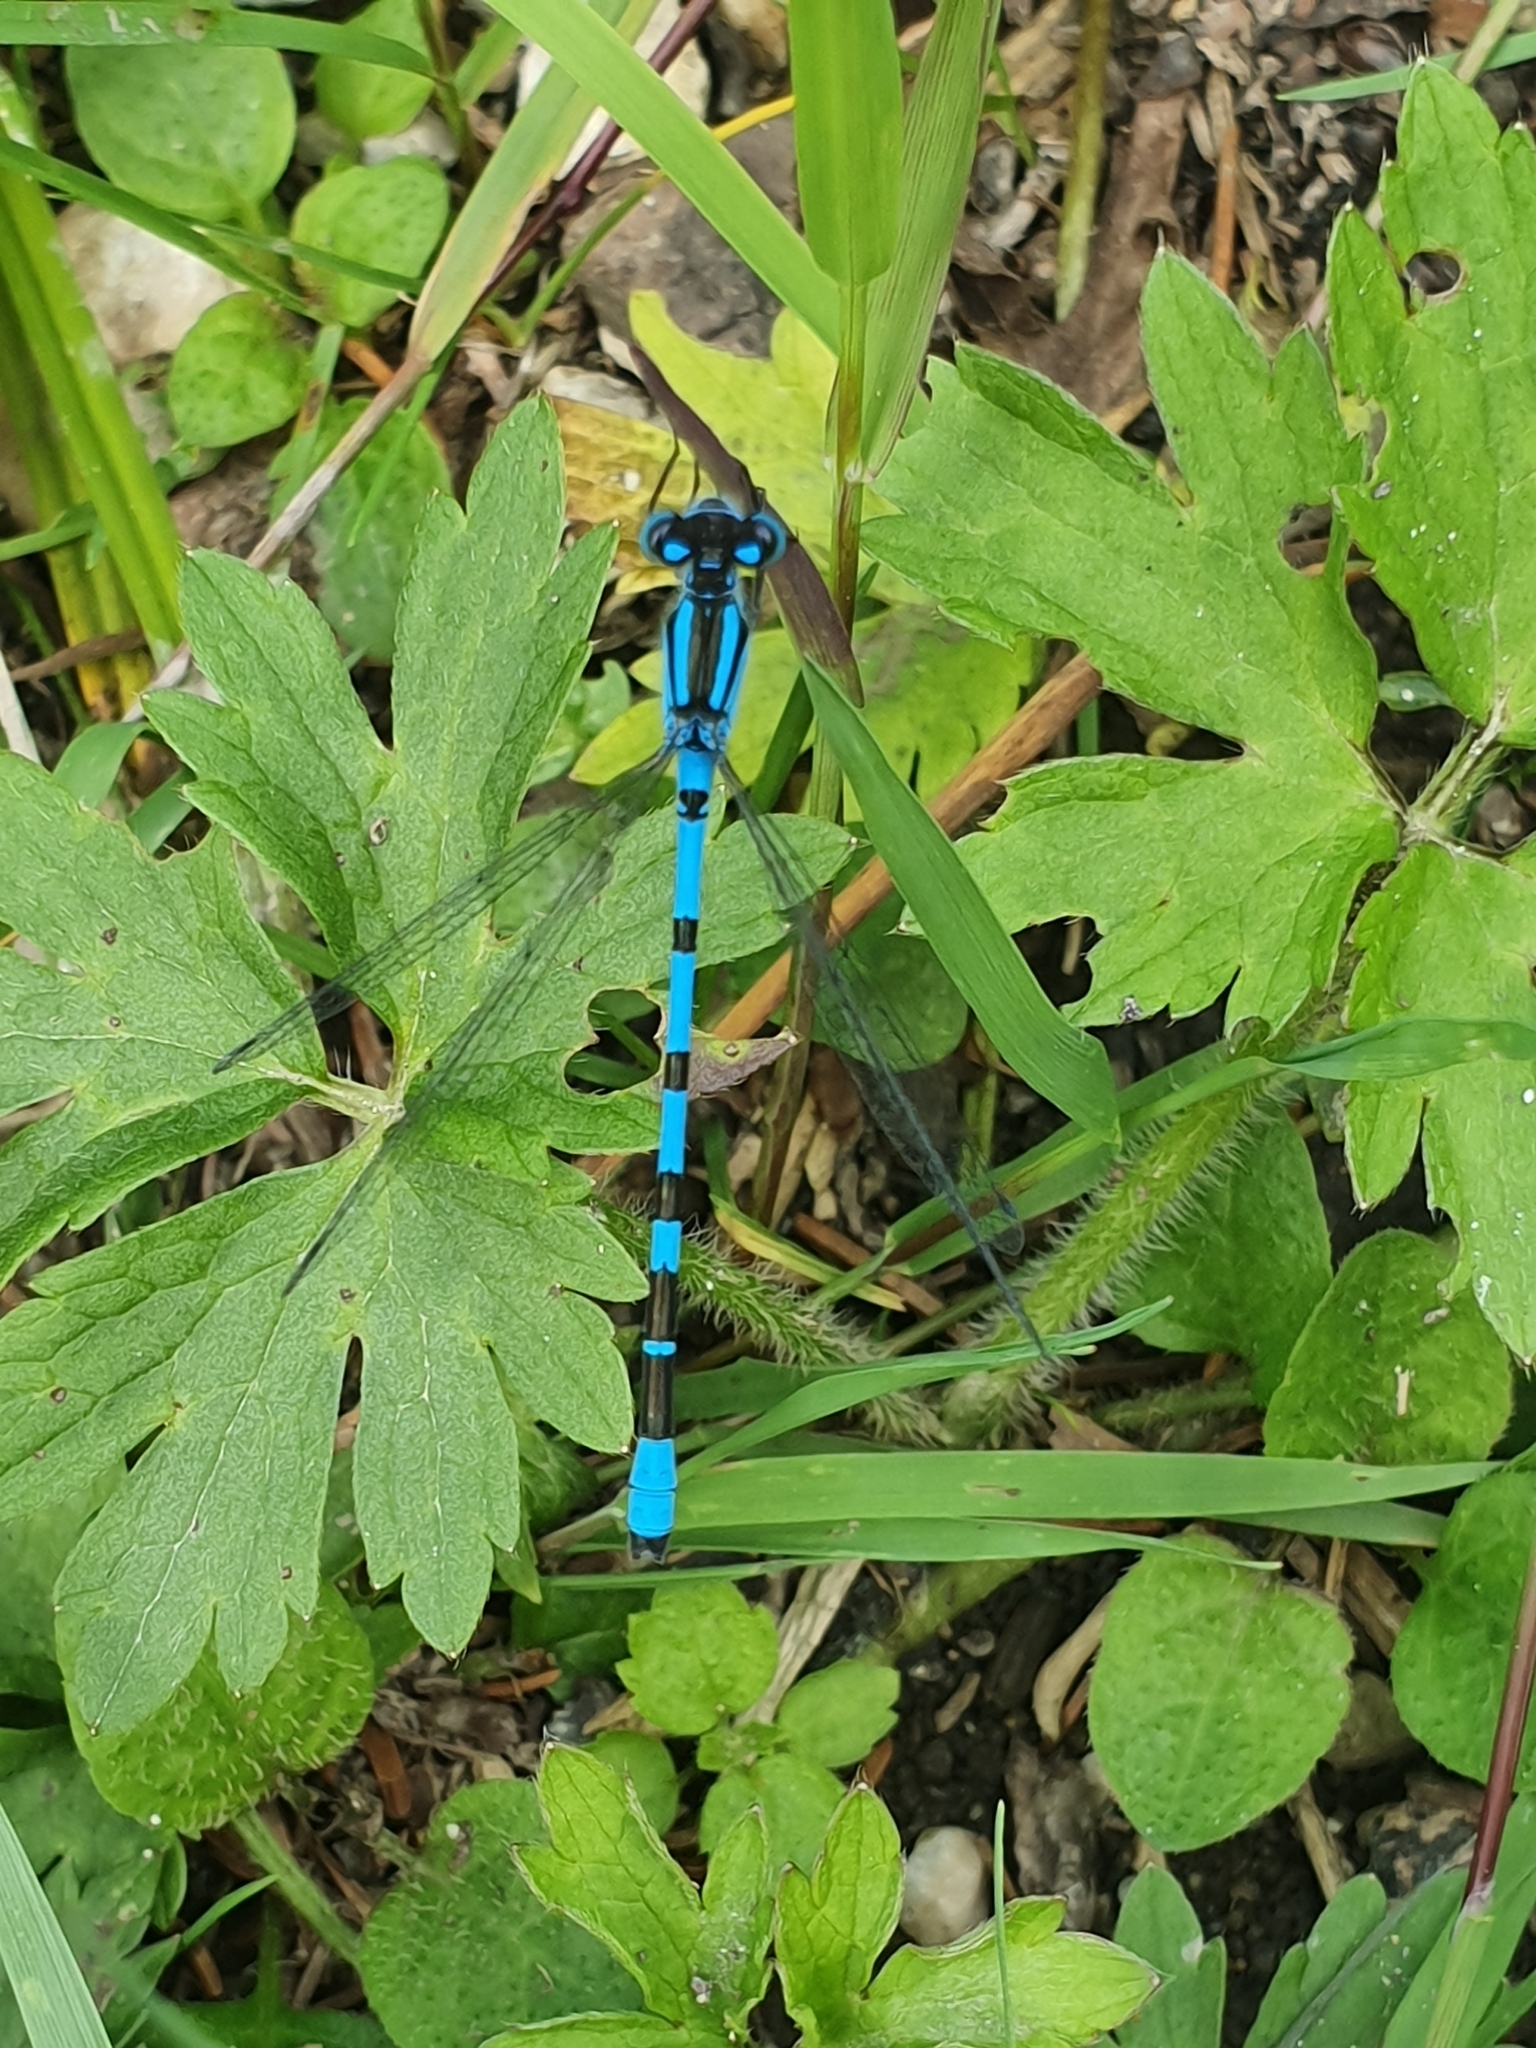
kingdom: Animalia
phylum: Arthropoda
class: Insecta
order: Odonata
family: Coenagrionidae
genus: Enallagma
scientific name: Enallagma cyathigerum
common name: Common blue damselfly
